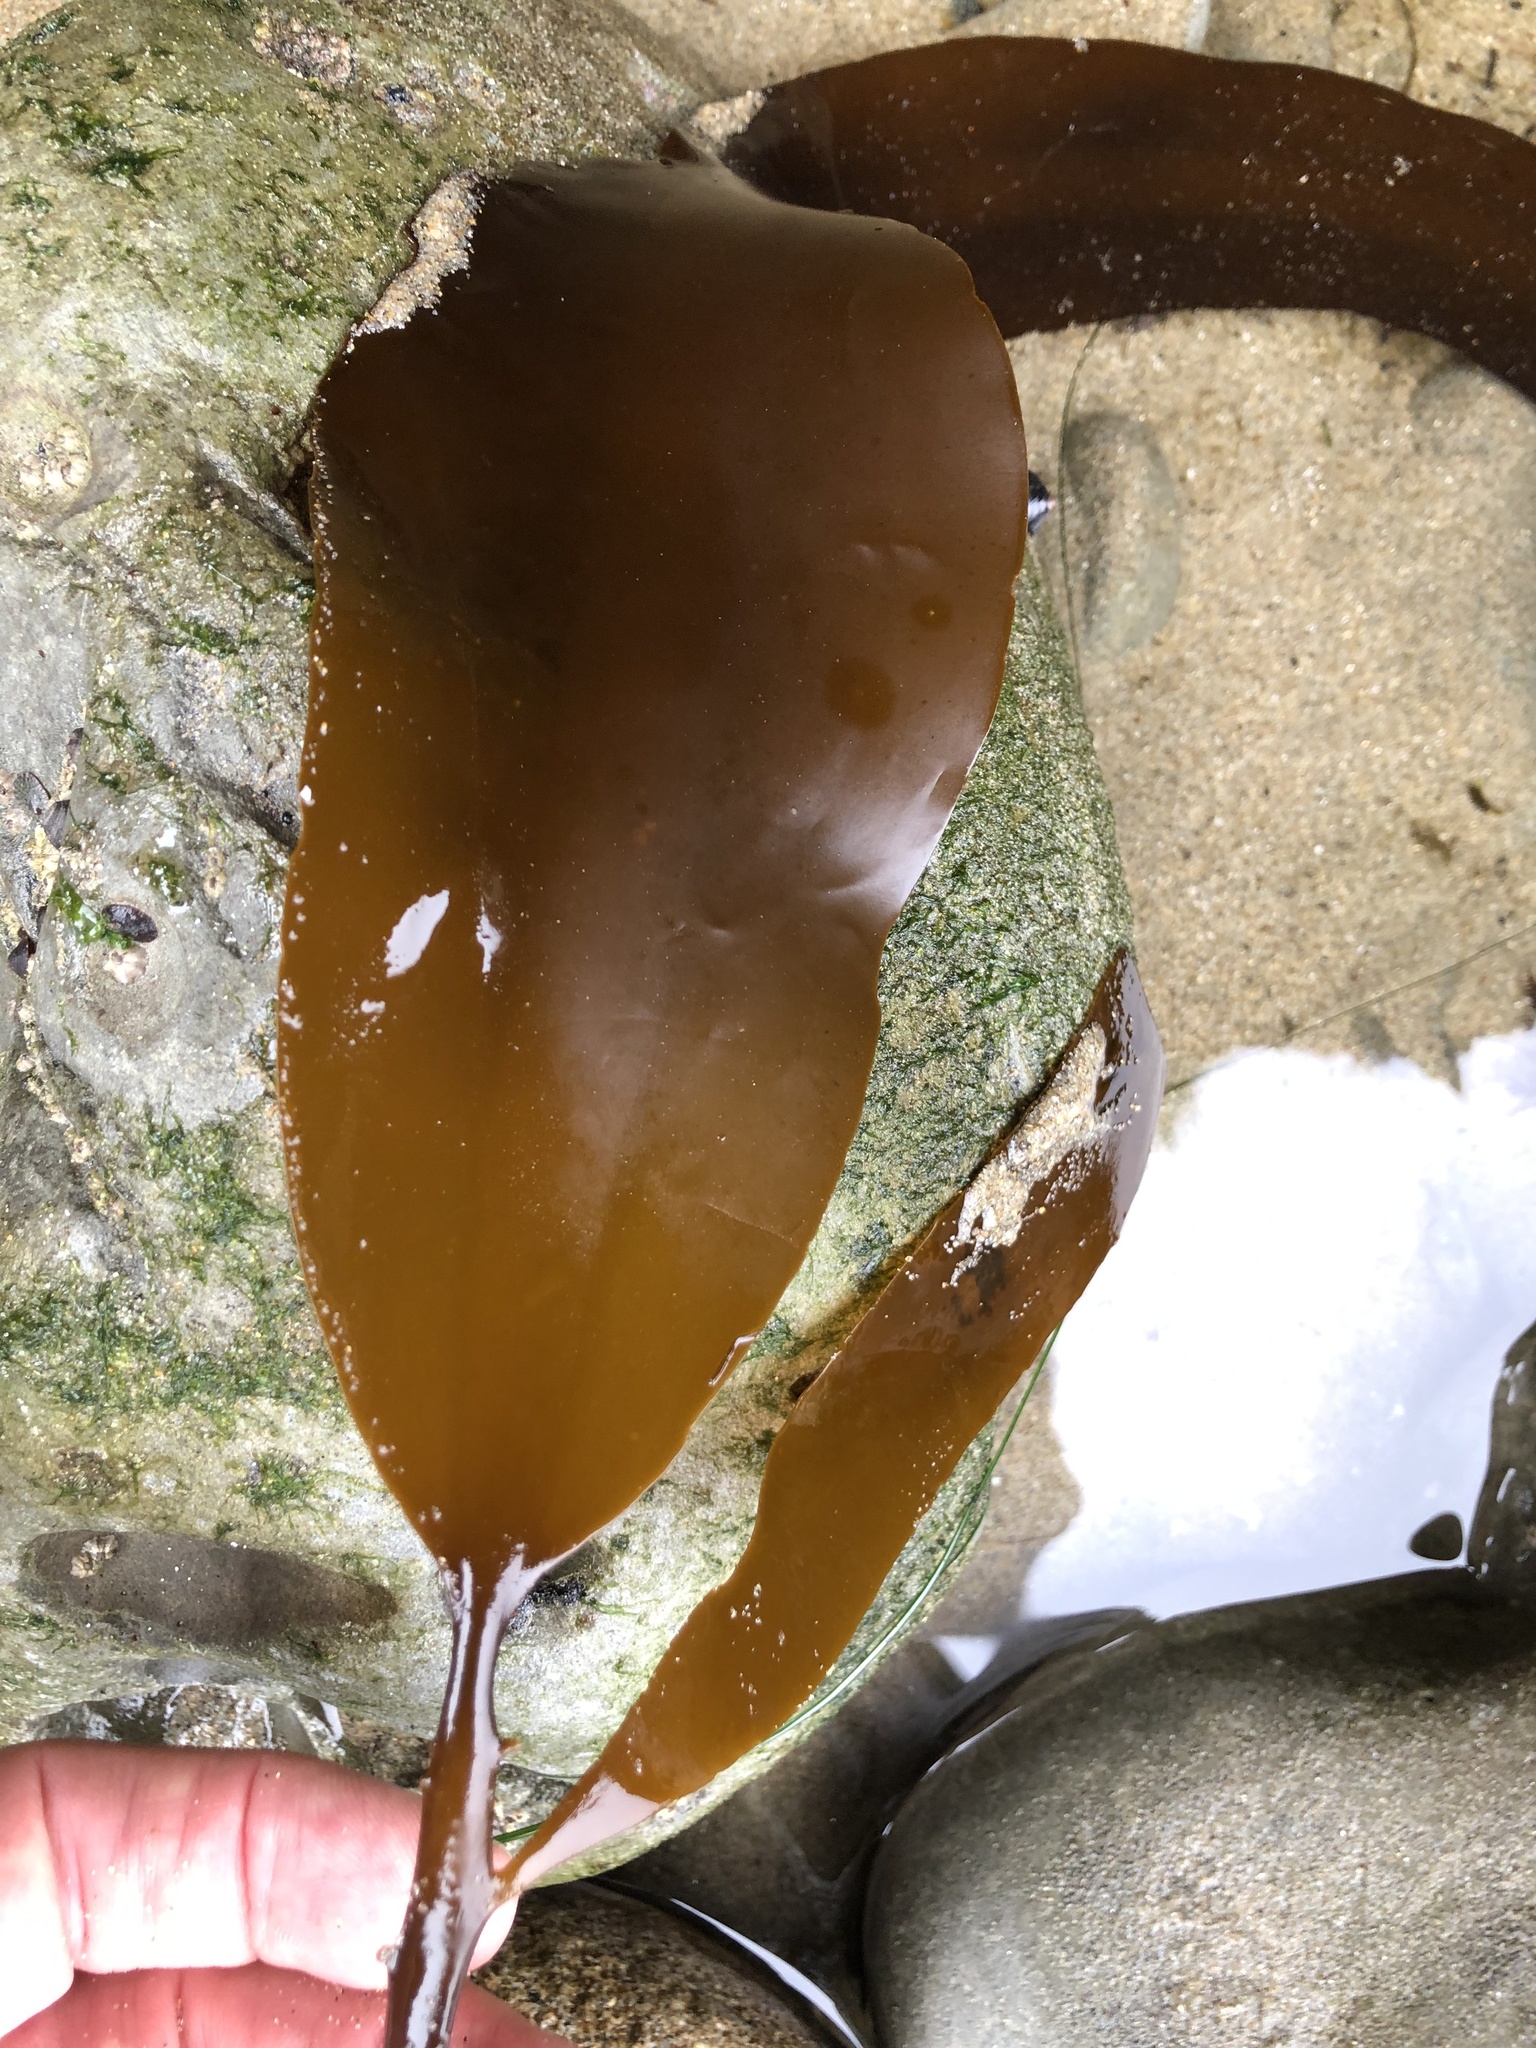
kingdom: Chromista
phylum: Ochrophyta
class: Phaeophyceae
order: Laminariales
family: Alariaceae
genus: Pterygophora
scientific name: Pterygophora californica
